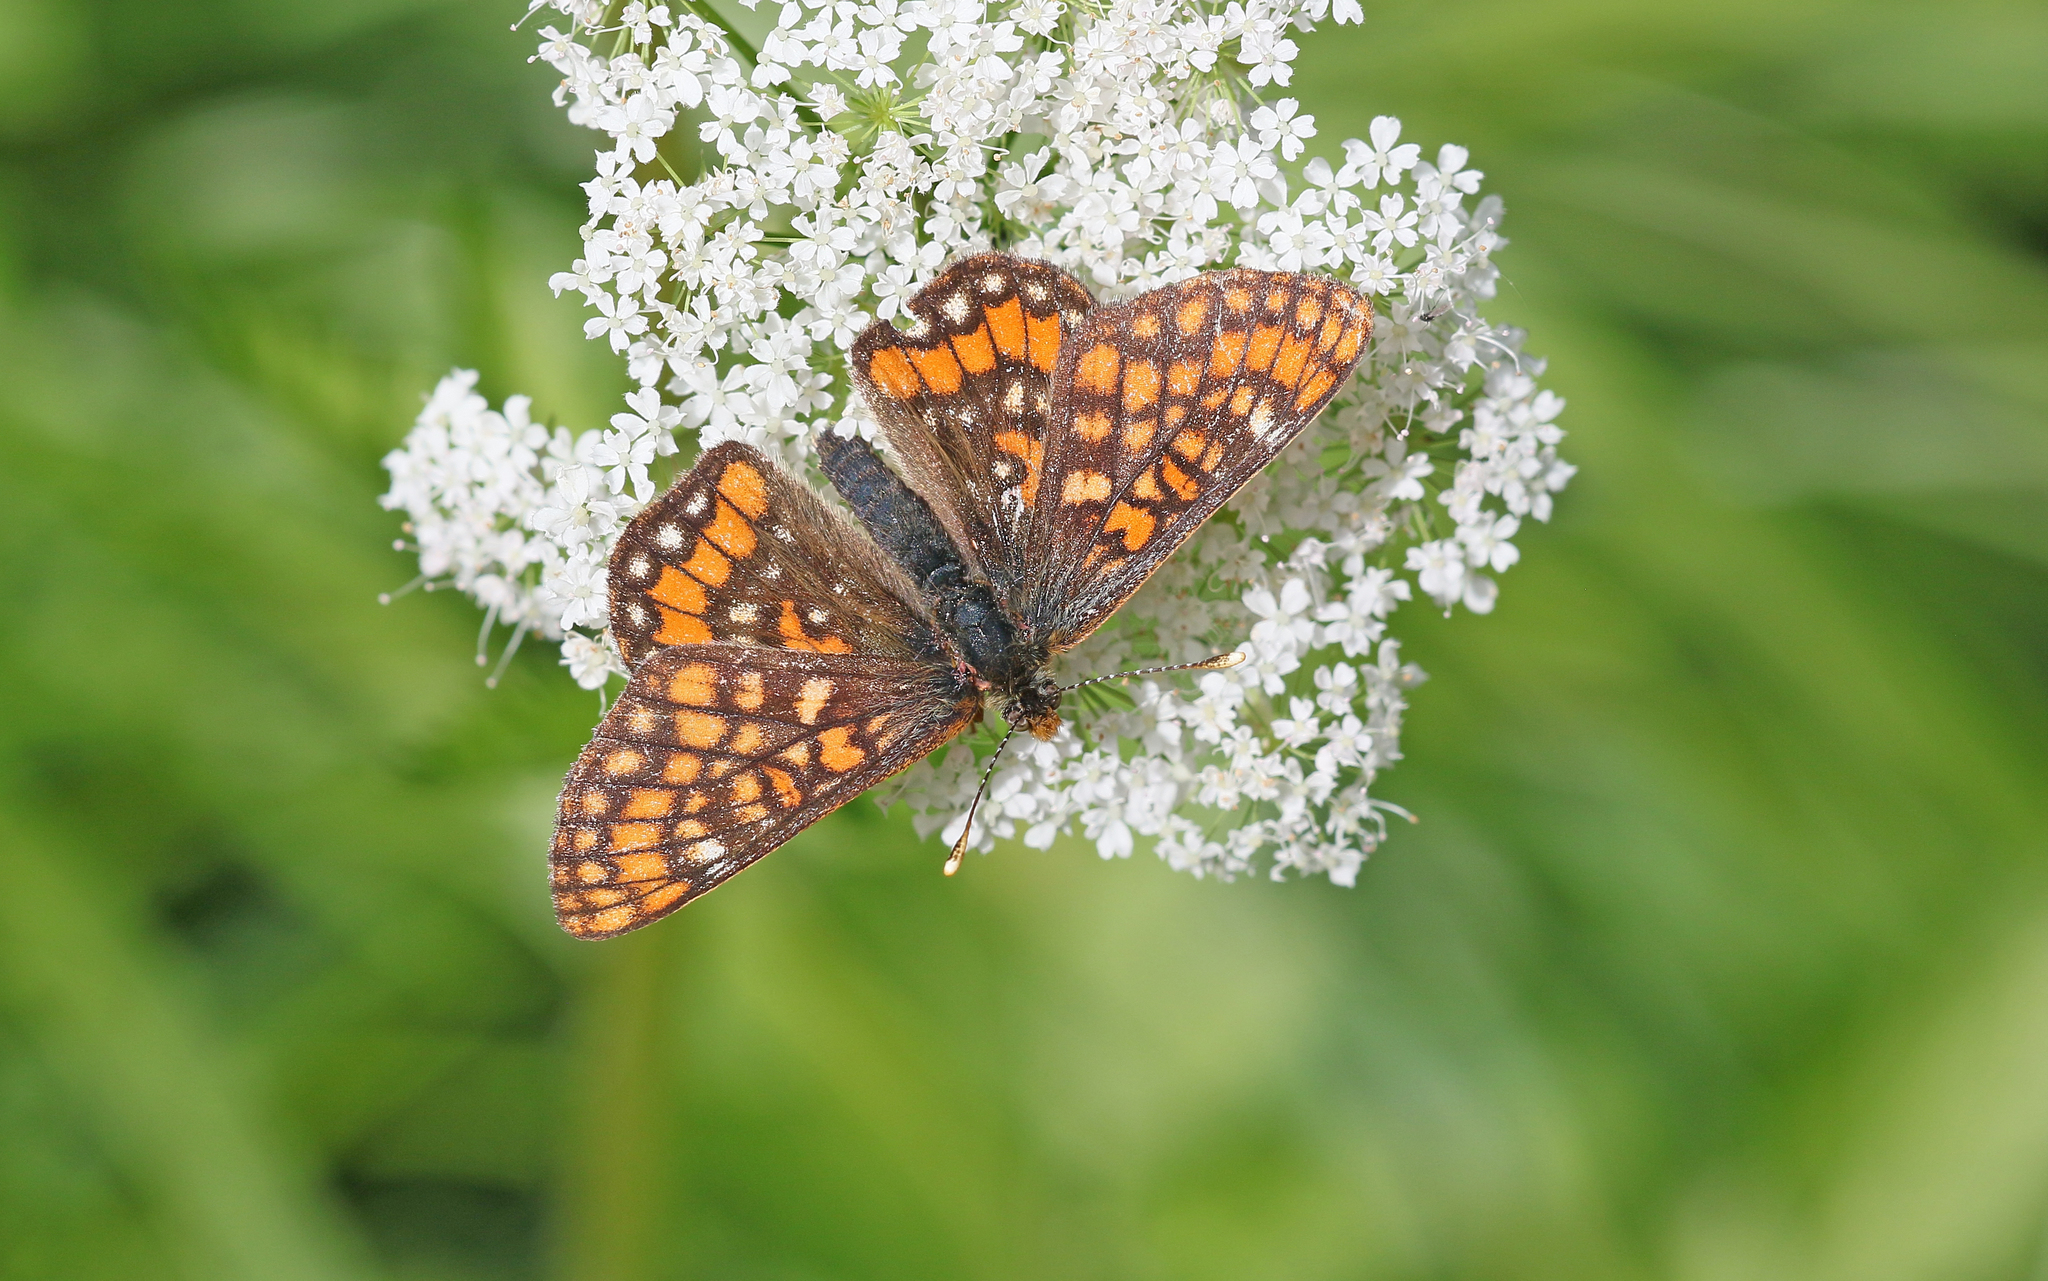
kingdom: Animalia
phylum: Arthropoda
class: Insecta
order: Lepidoptera
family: Nymphalidae
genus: Hypodryas
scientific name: Hypodryas intermedia
